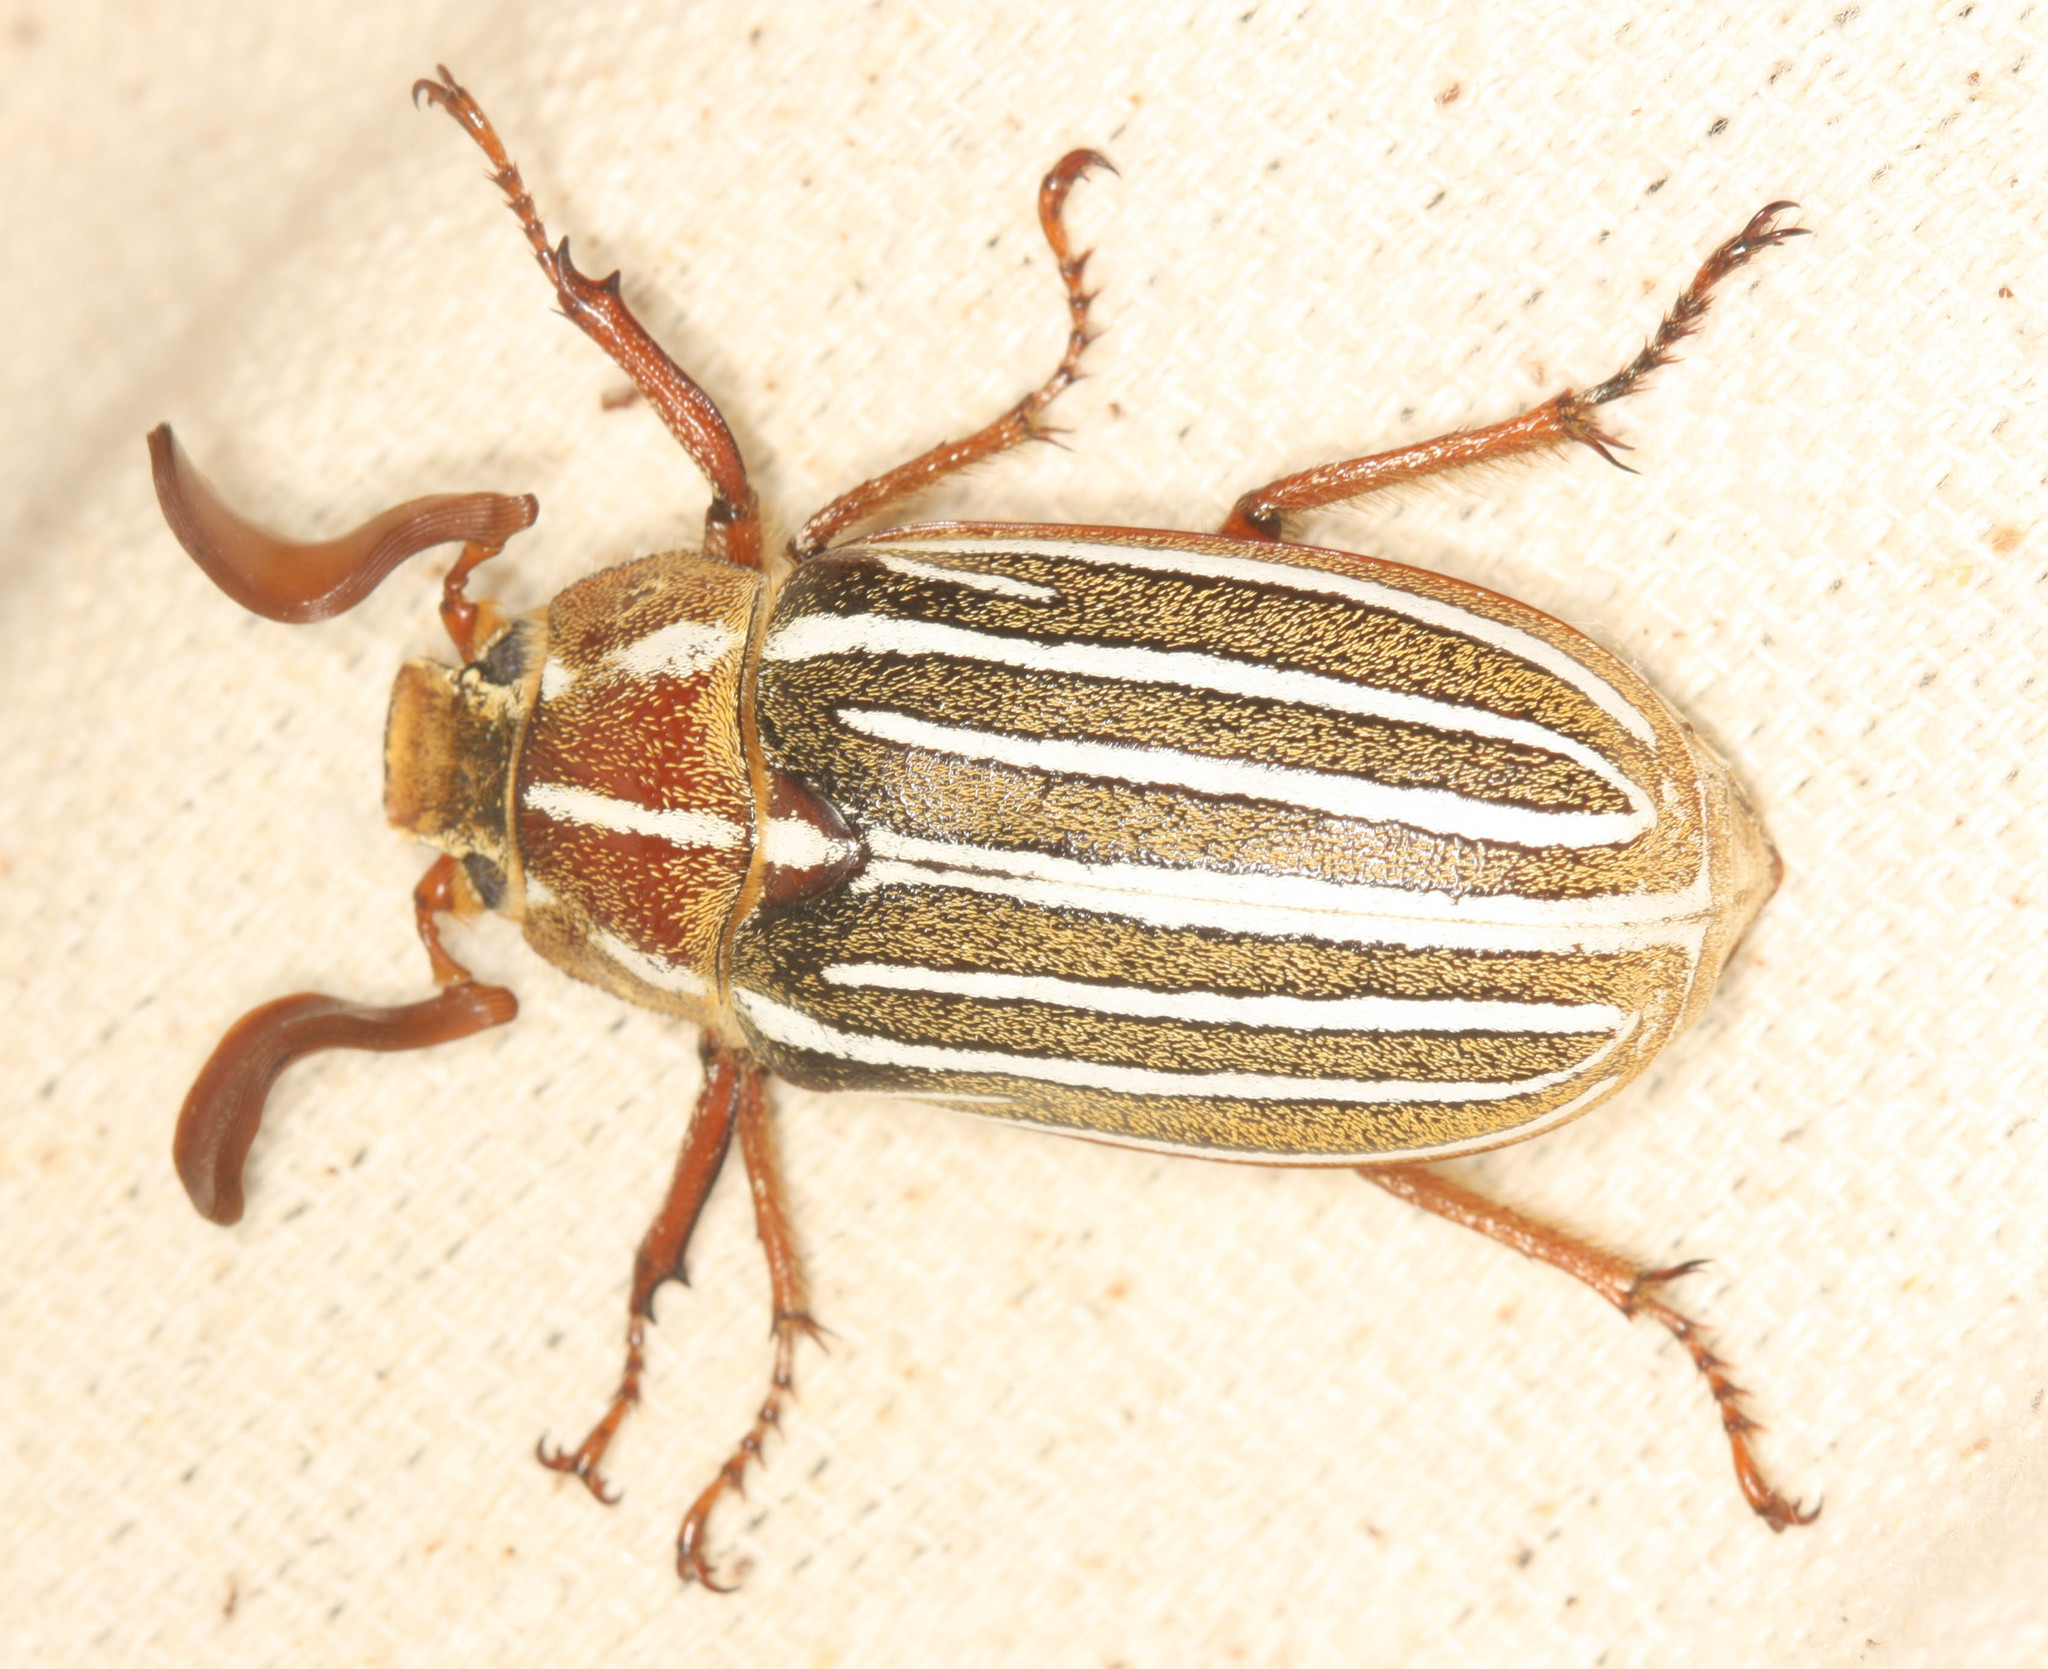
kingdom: Animalia
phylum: Arthropoda
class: Insecta
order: Coleoptera
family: Scarabaeidae
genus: Polyphylla
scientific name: Polyphylla decemlineata
